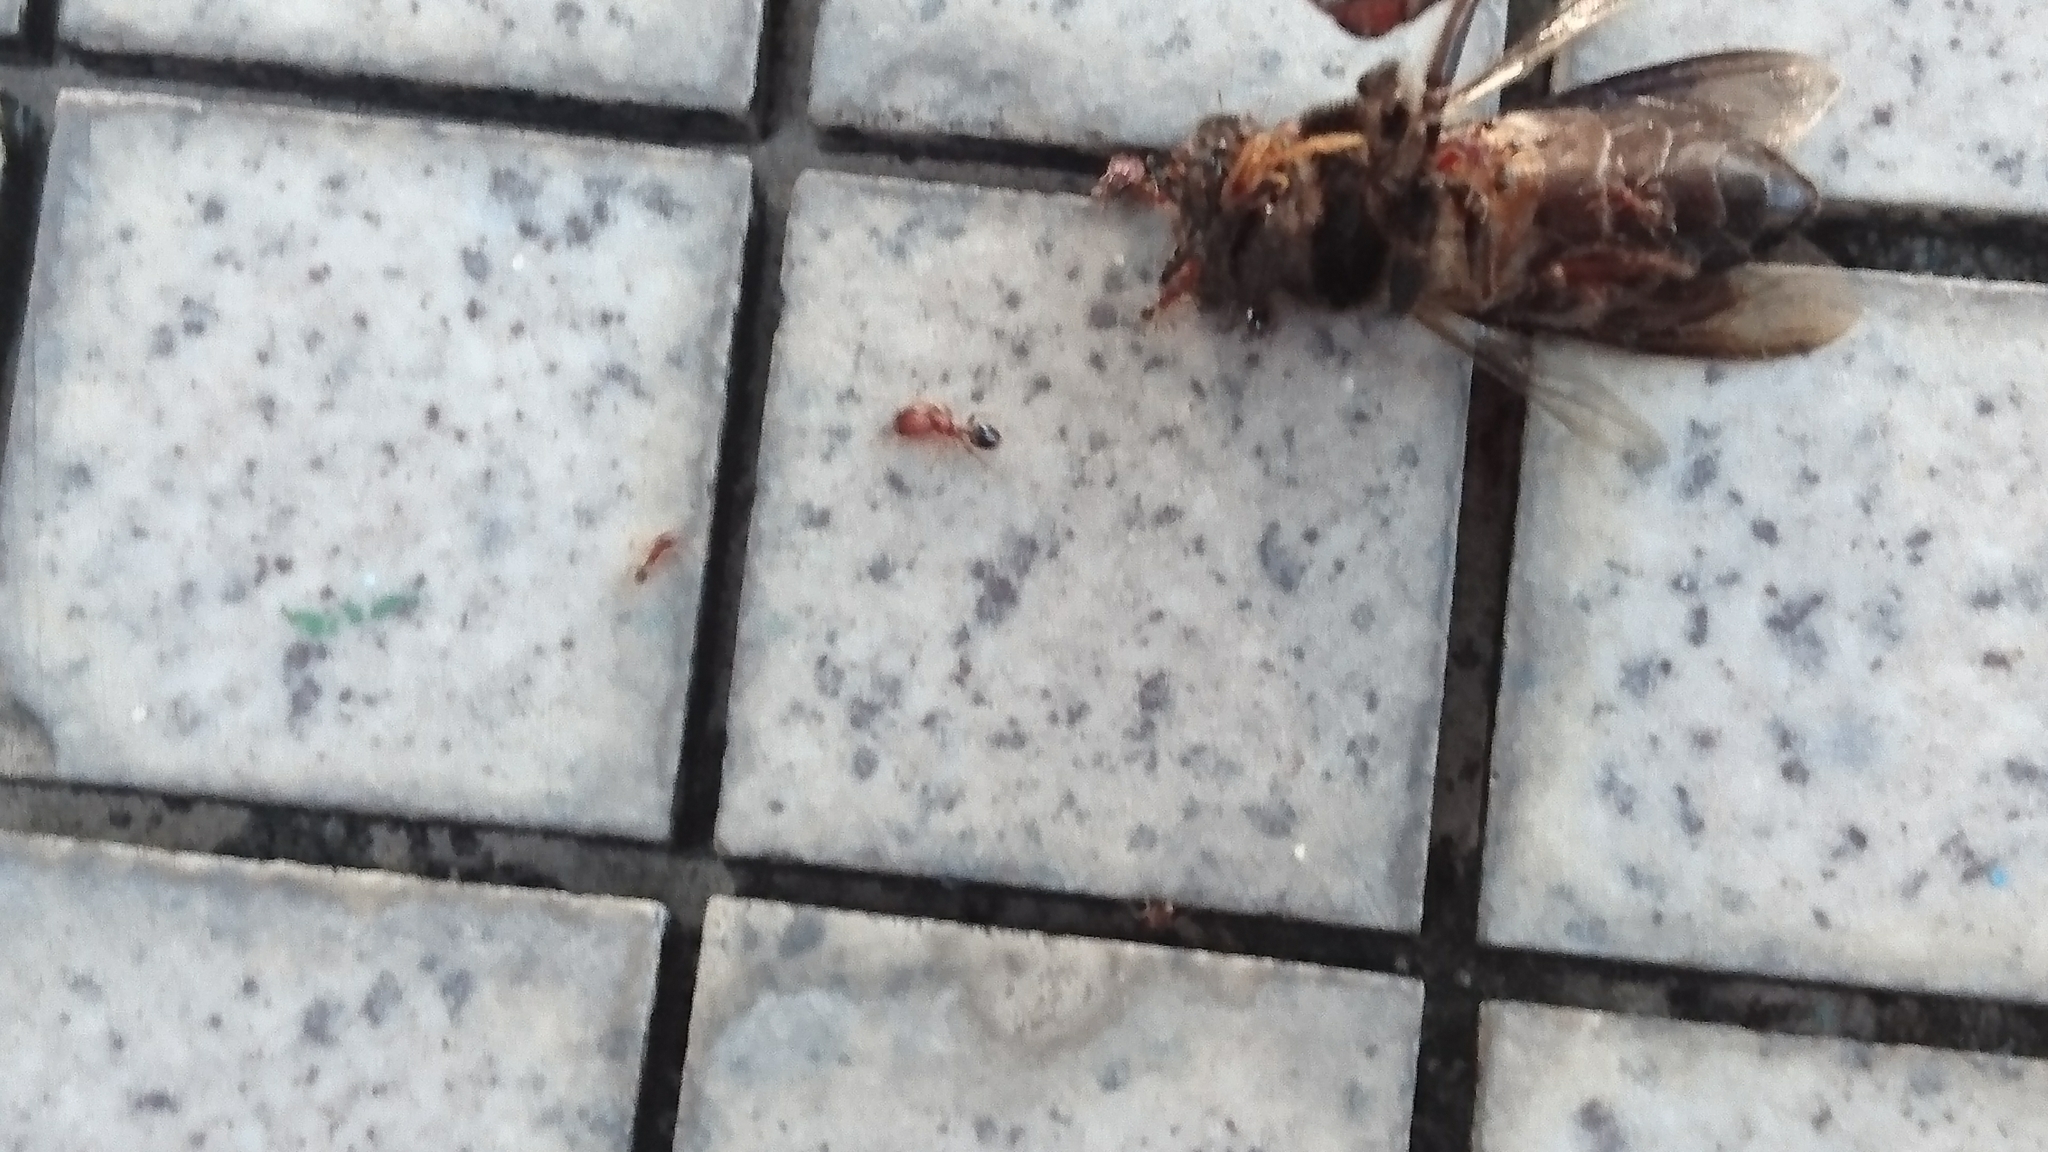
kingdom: Animalia
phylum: Arthropoda
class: Insecta
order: Hymenoptera
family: Apidae
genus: Apis
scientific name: Apis dorsata
